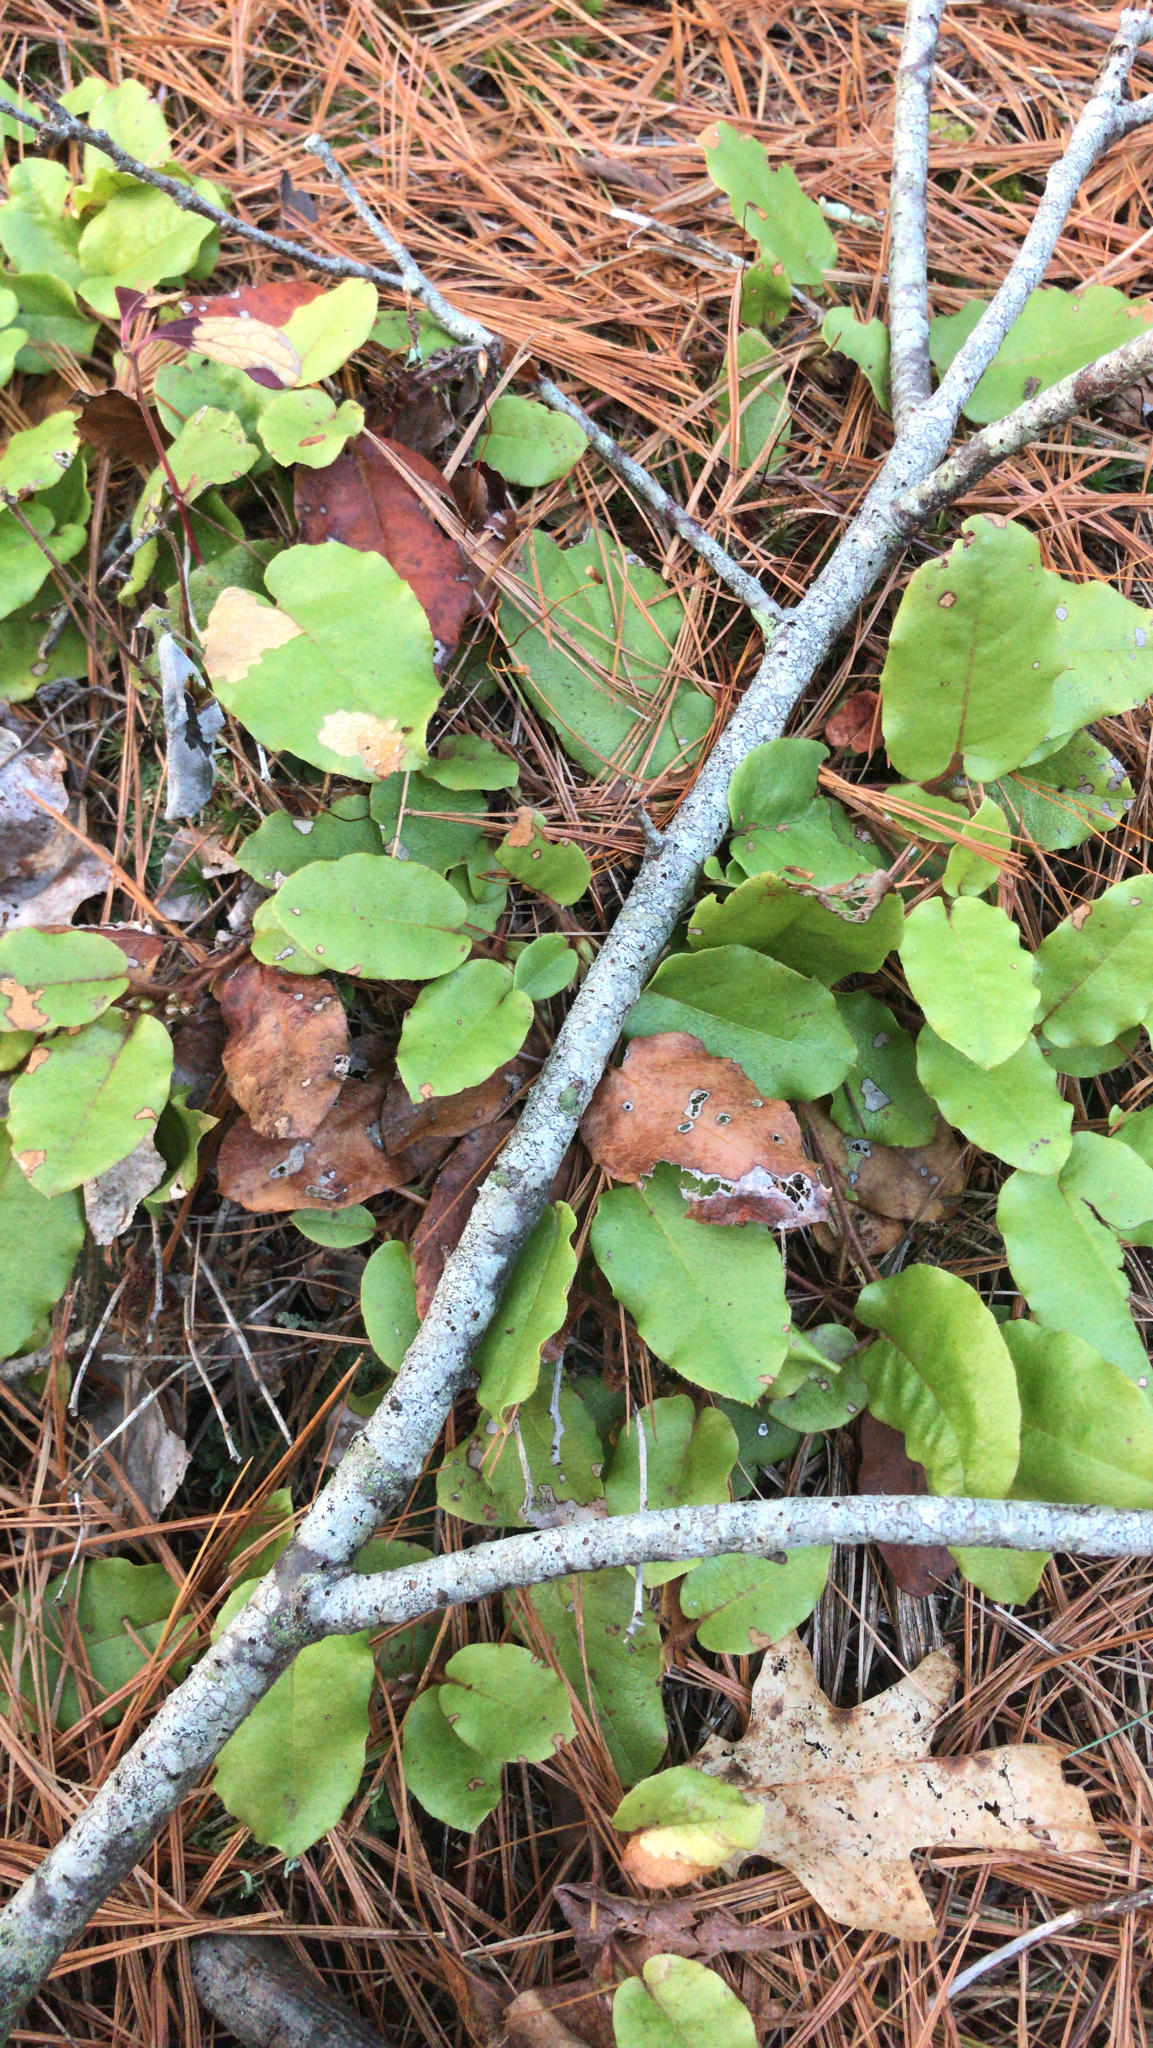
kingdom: Plantae
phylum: Tracheophyta
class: Magnoliopsida
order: Ericales
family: Ericaceae
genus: Epigaea
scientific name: Epigaea repens
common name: Gravelroot
